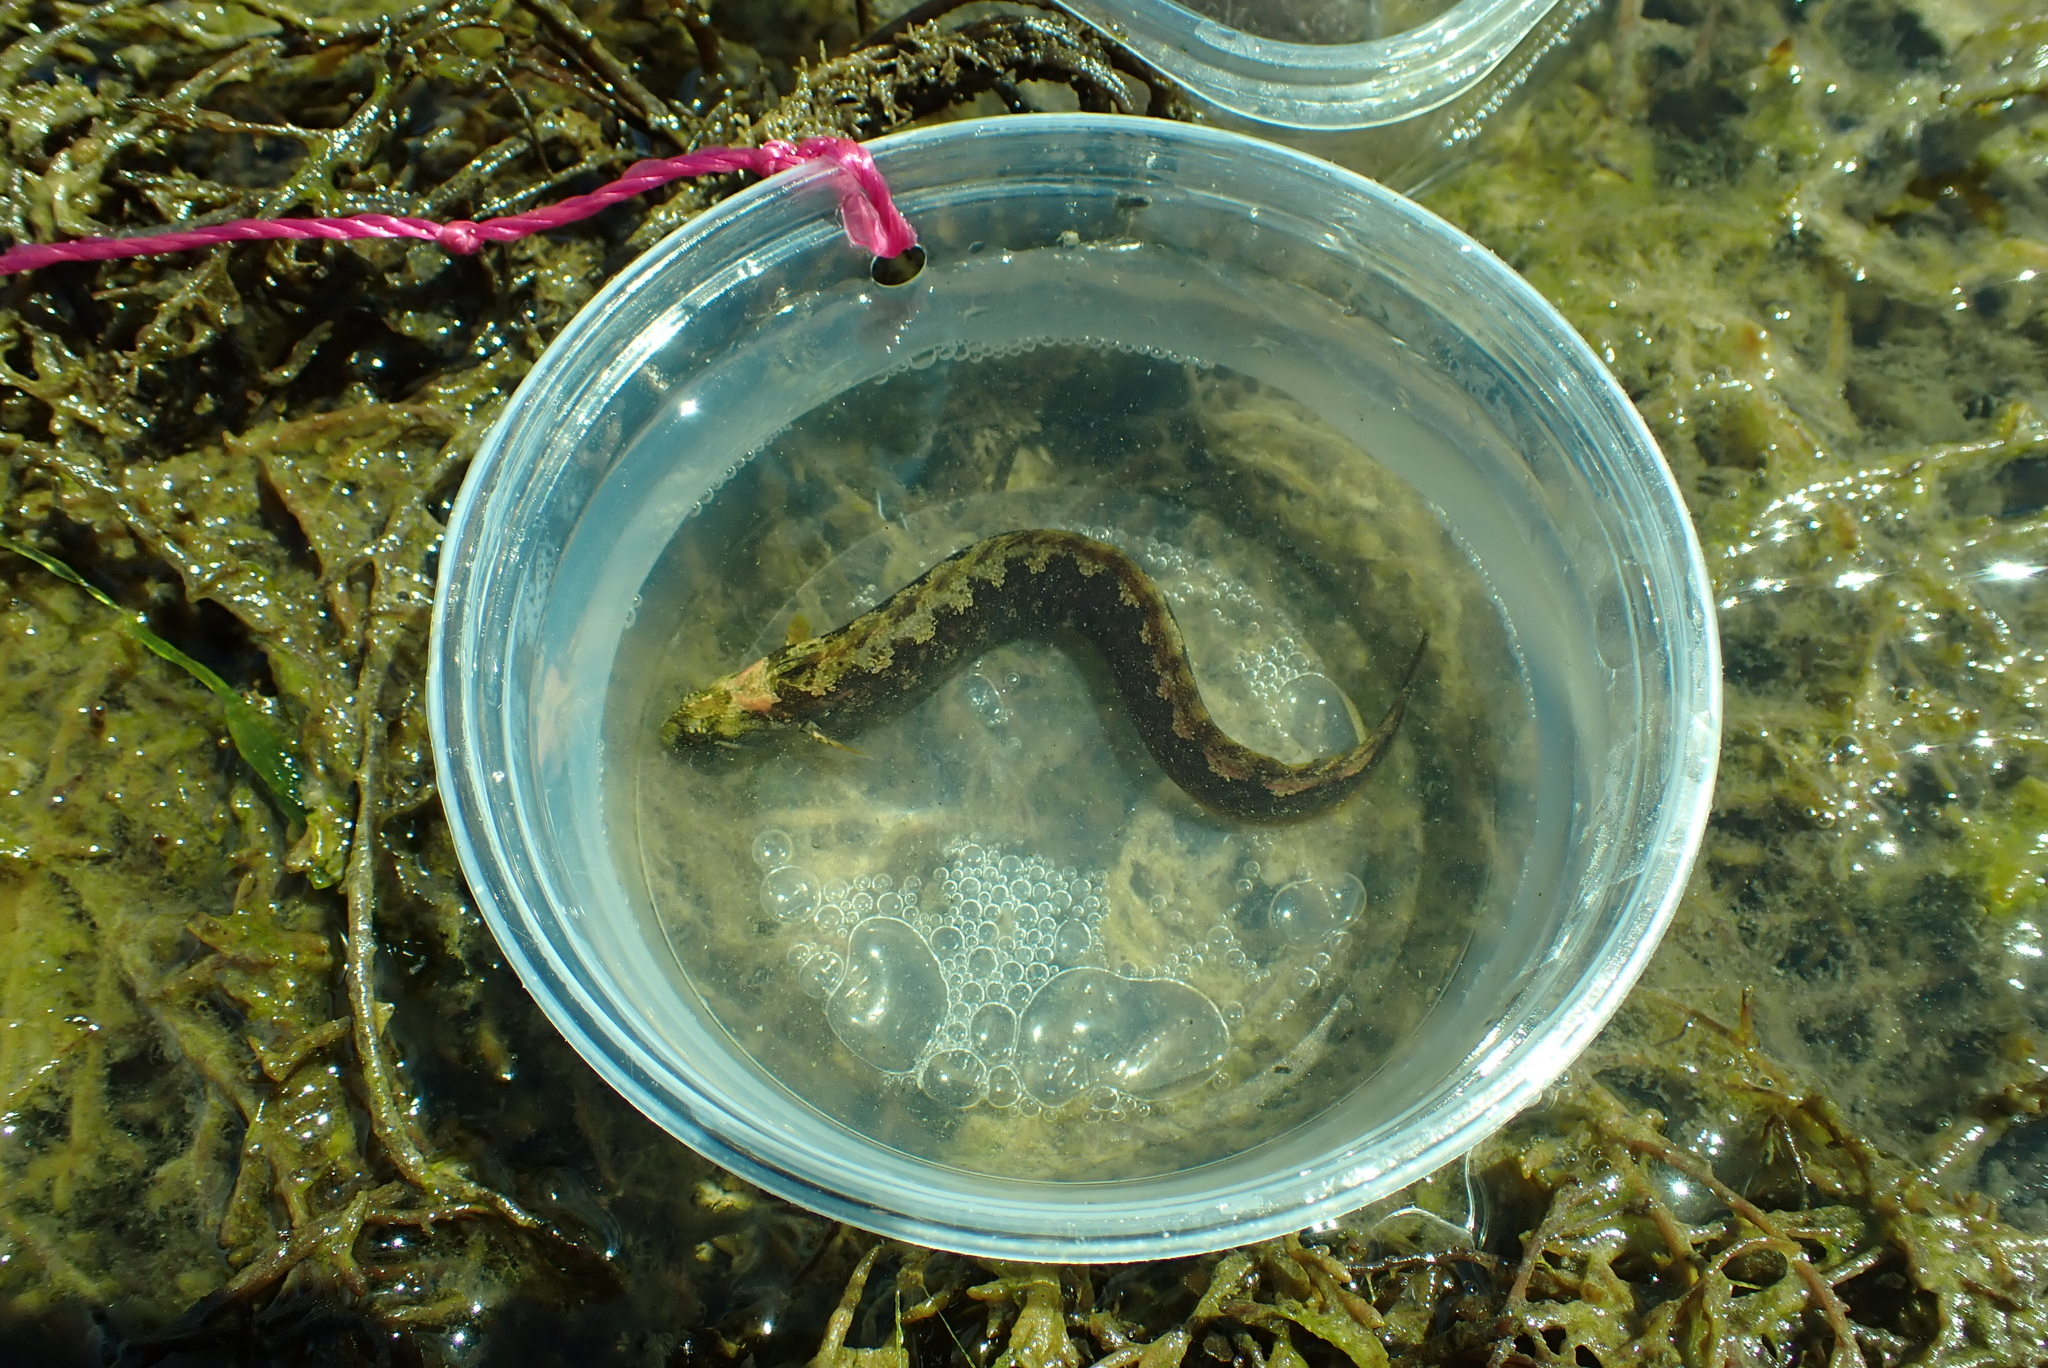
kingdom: Animalia
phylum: Chordata
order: Perciformes
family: Stichaeidae
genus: Anoplarchus
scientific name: Anoplarchus purpurescens
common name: High cockscomb
